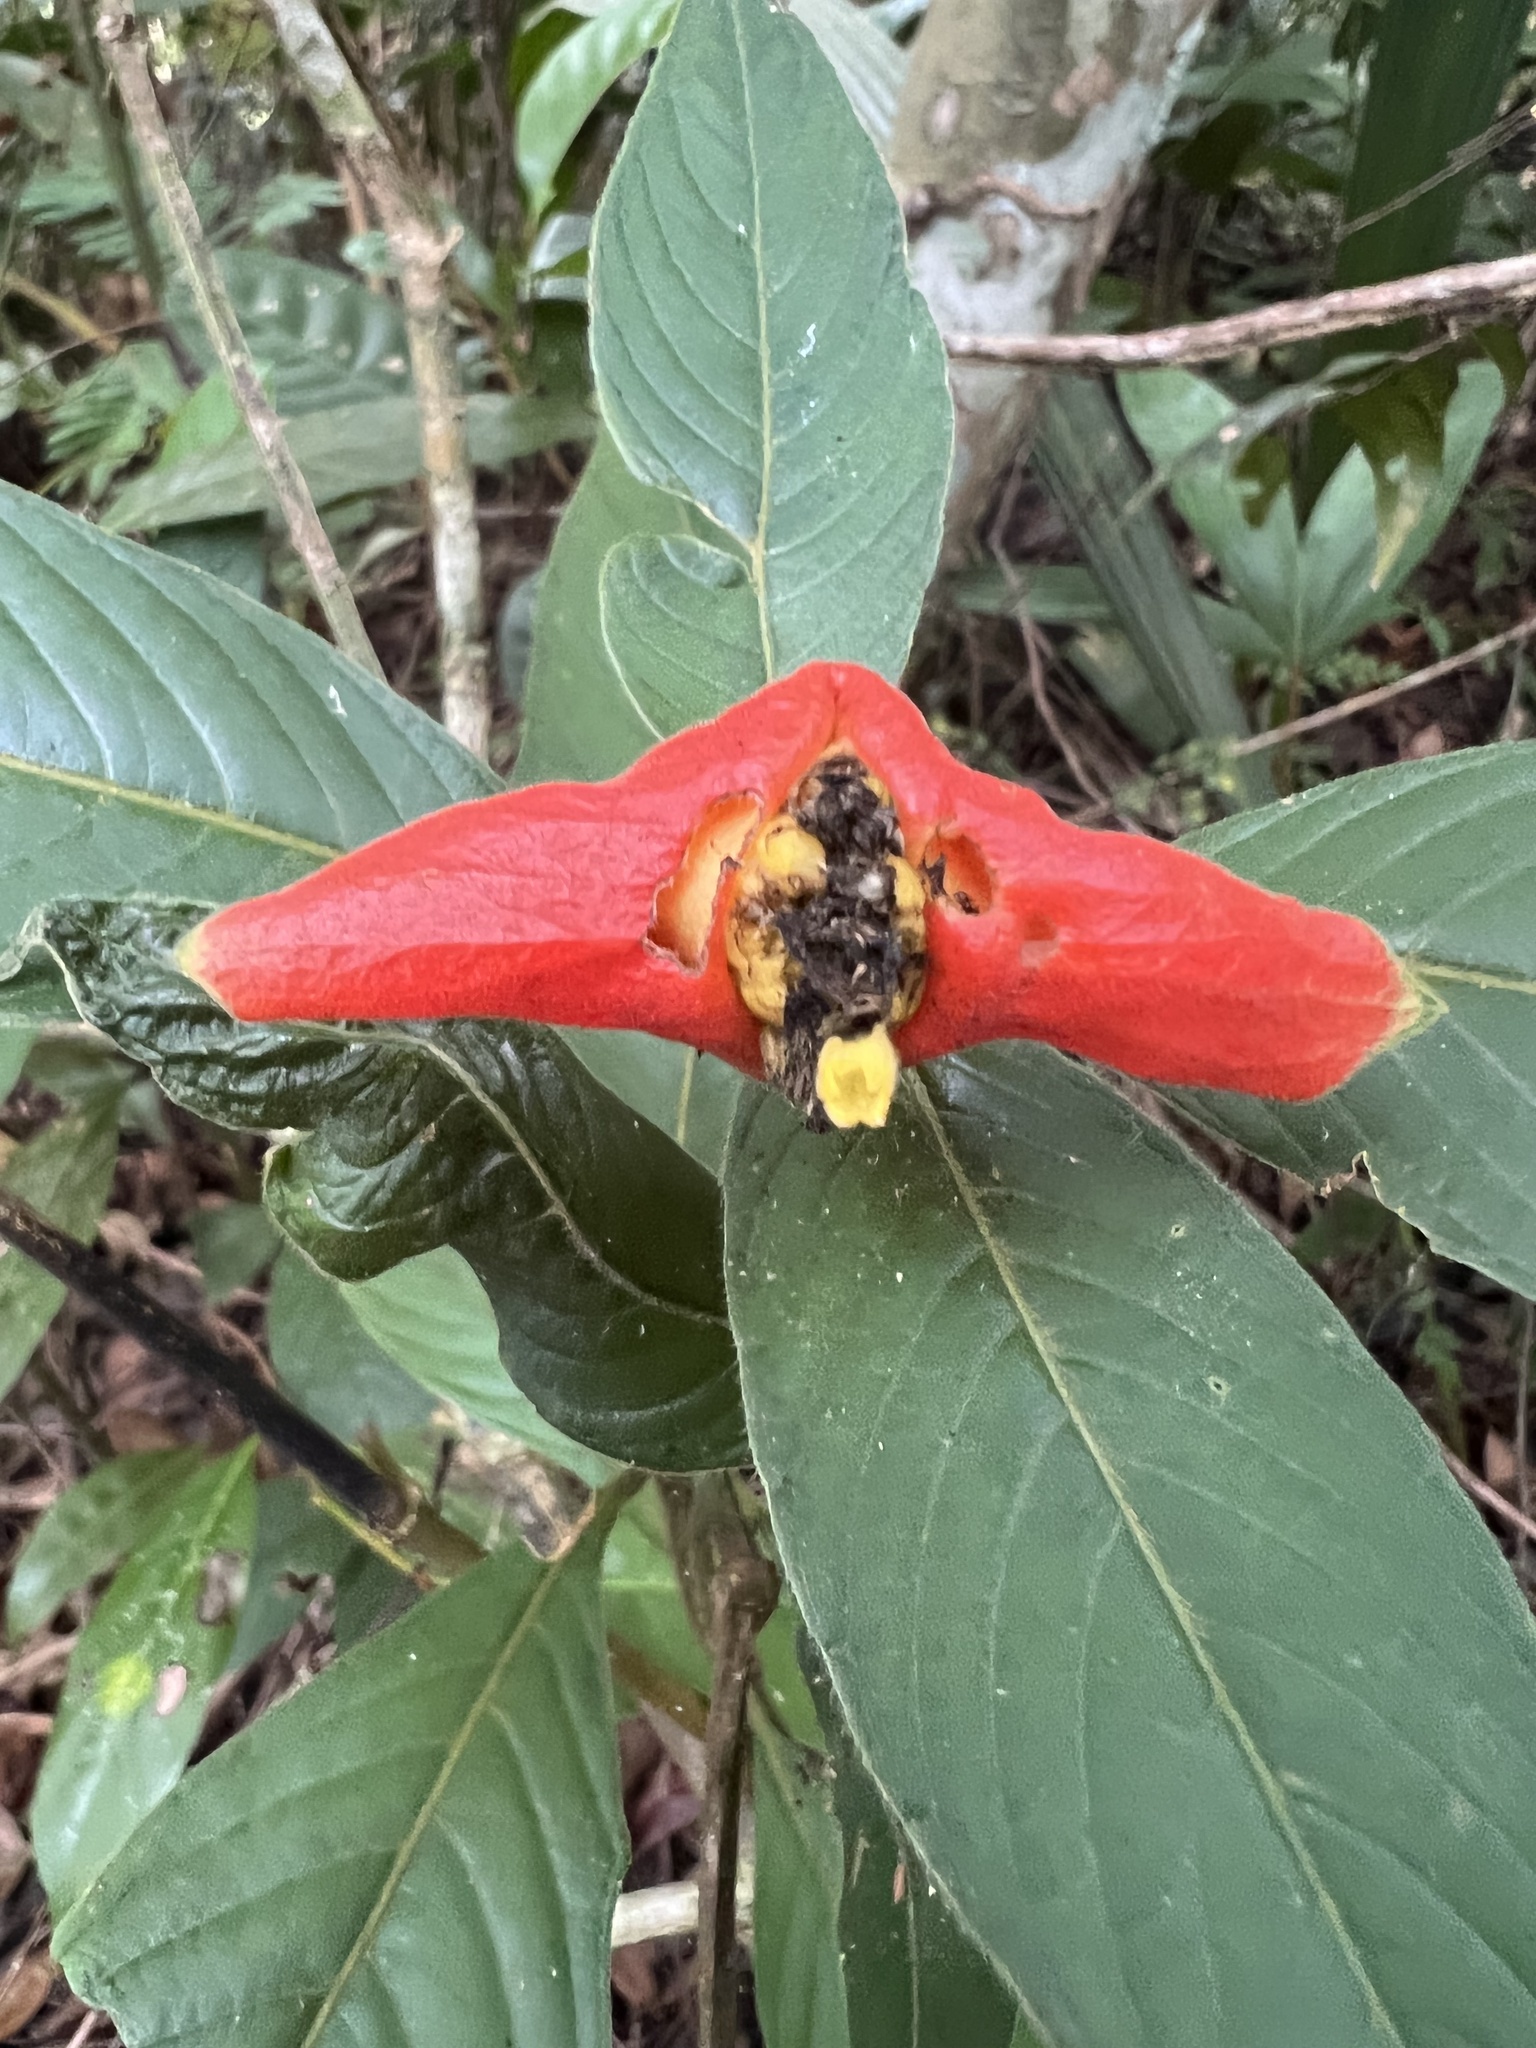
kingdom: Plantae
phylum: Tracheophyta
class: Magnoliopsida
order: Gentianales
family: Rubiaceae
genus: Palicourea
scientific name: Palicourea tomentosa
